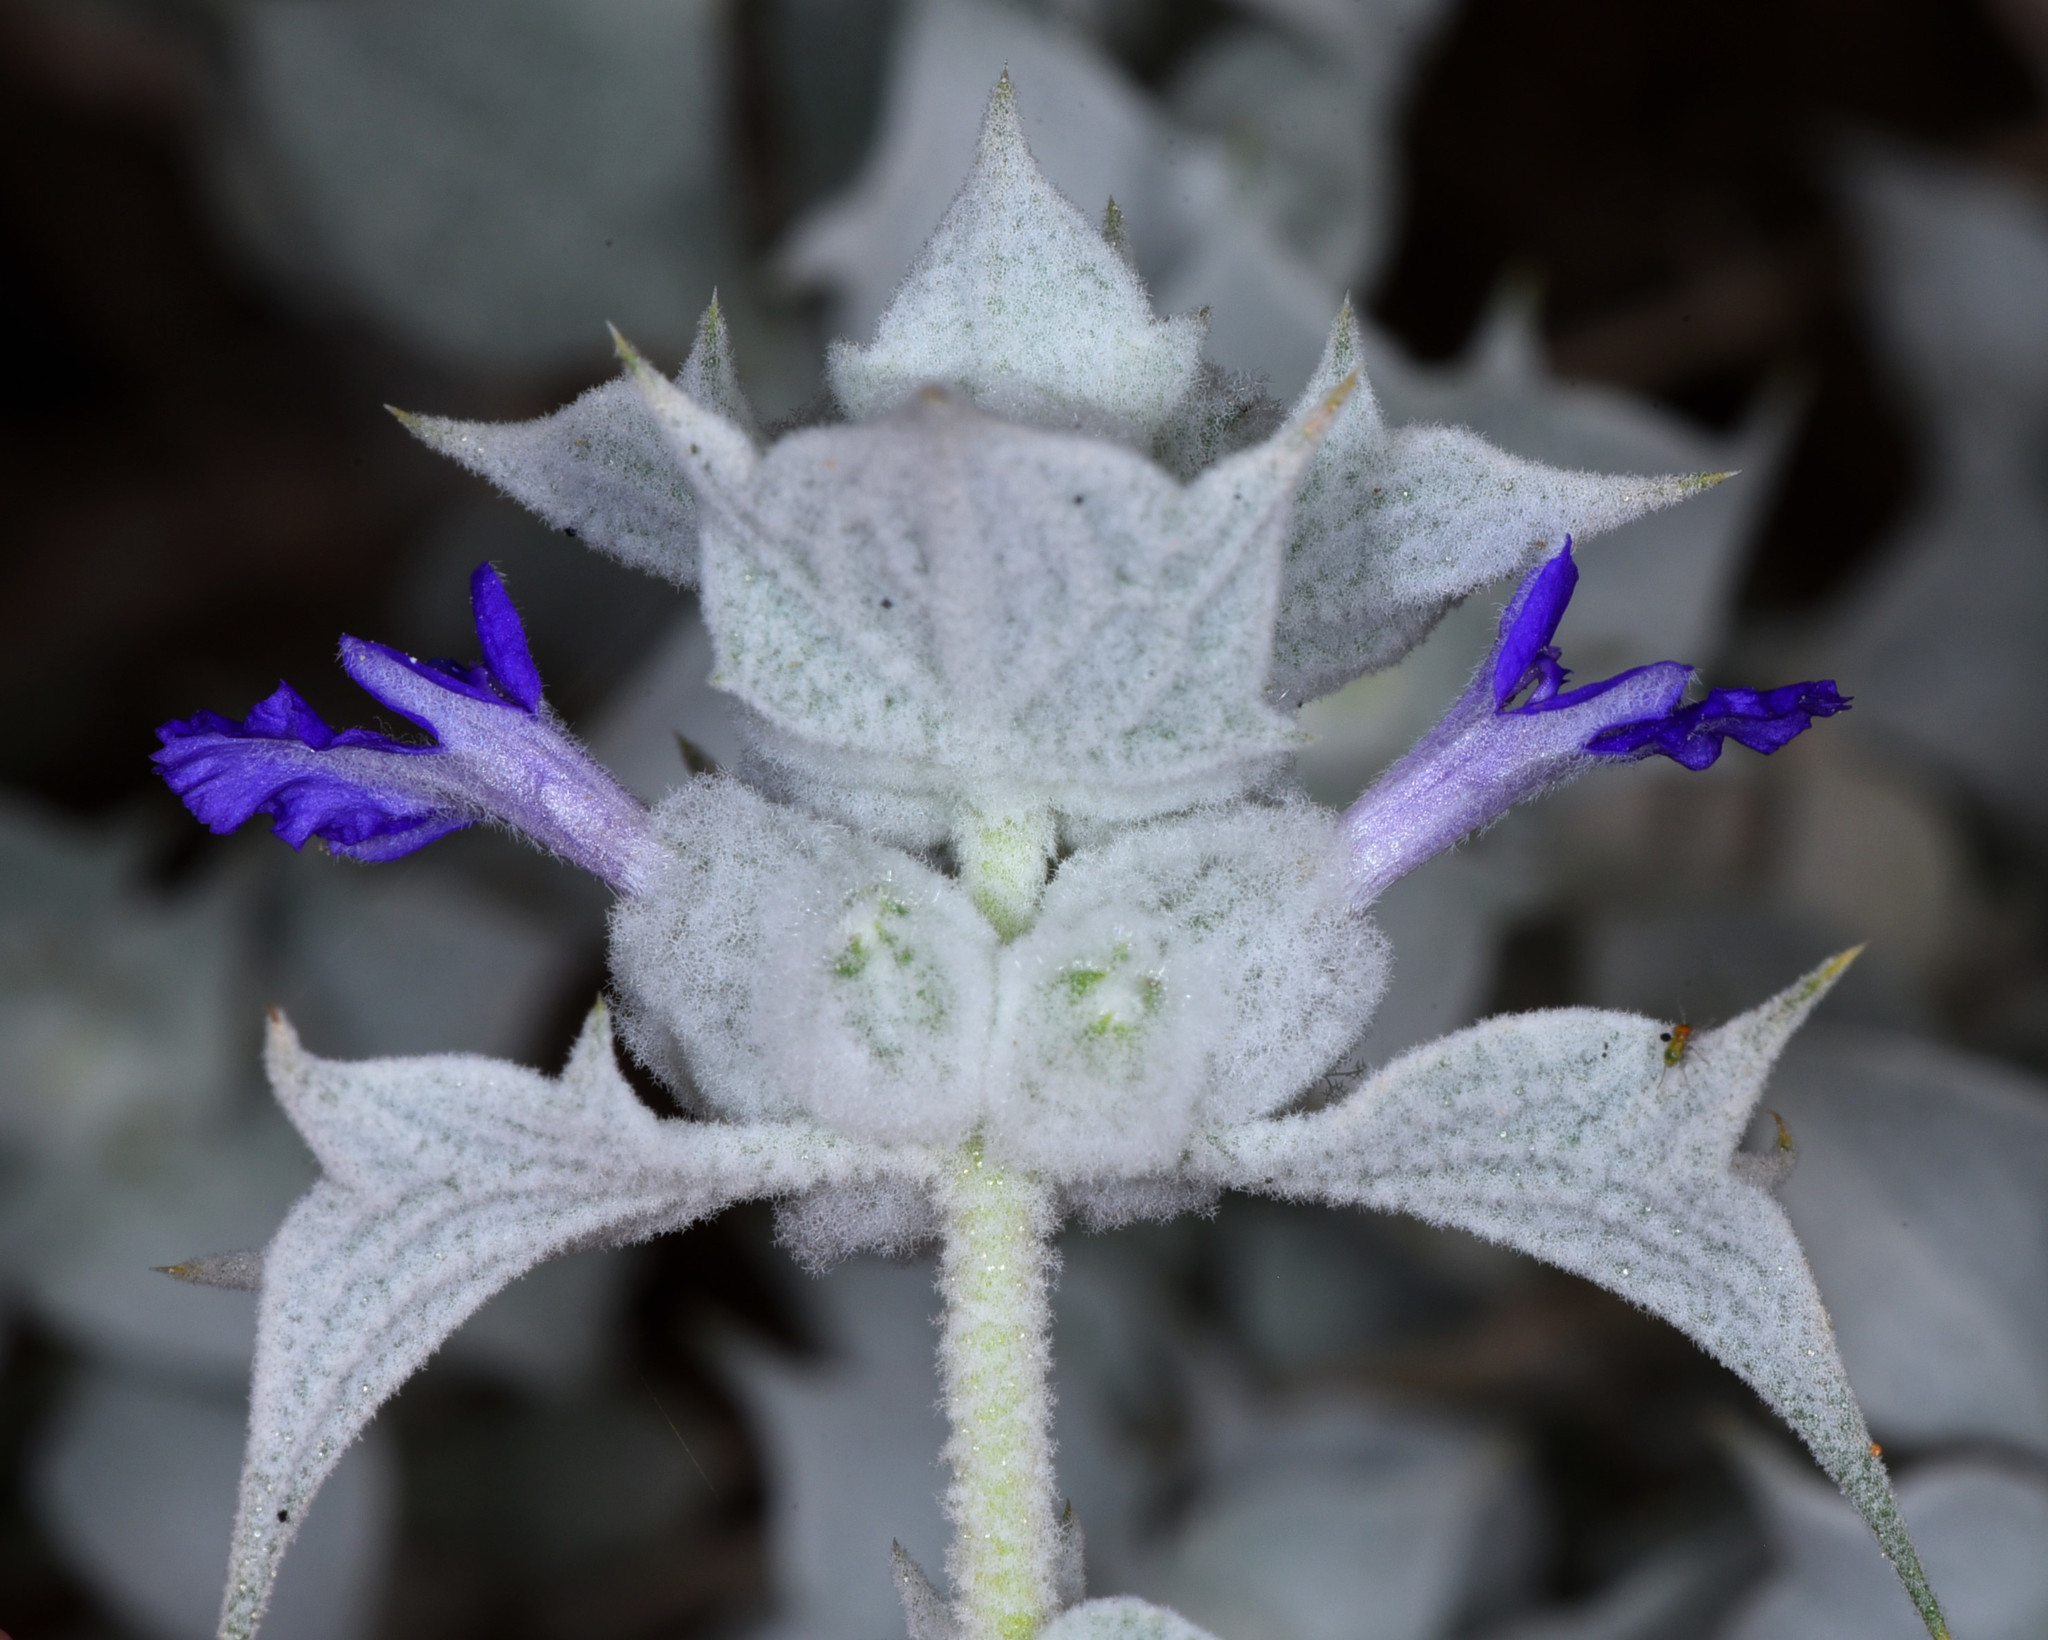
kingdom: Plantae
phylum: Tracheophyta
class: Magnoliopsida
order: Lamiales
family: Lamiaceae
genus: Salvia
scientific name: Salvia funerea
